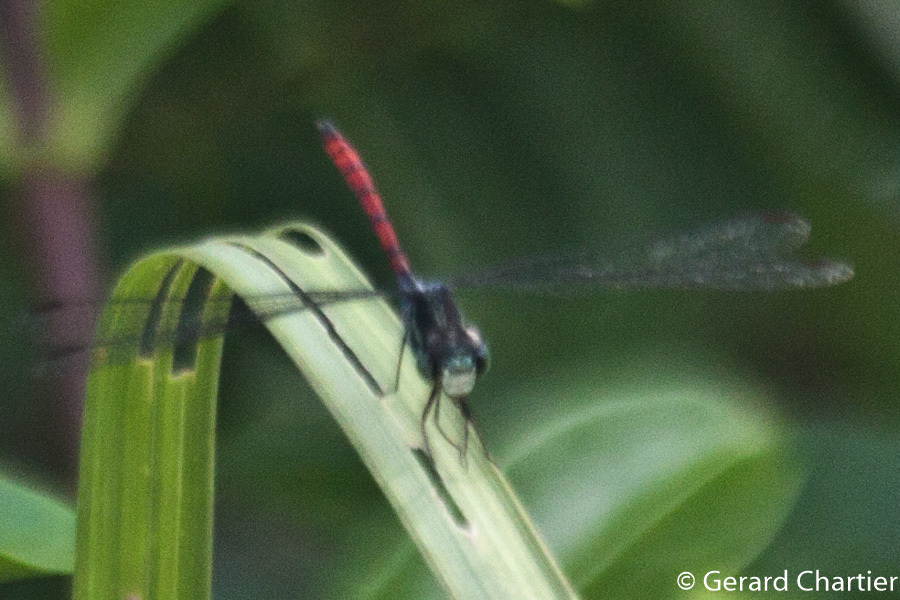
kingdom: Animalia
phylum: Arthropoda
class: Insecta
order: Odonata
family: Libellulidae
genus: Nesoxenia
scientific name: Nesoxenia lineata
